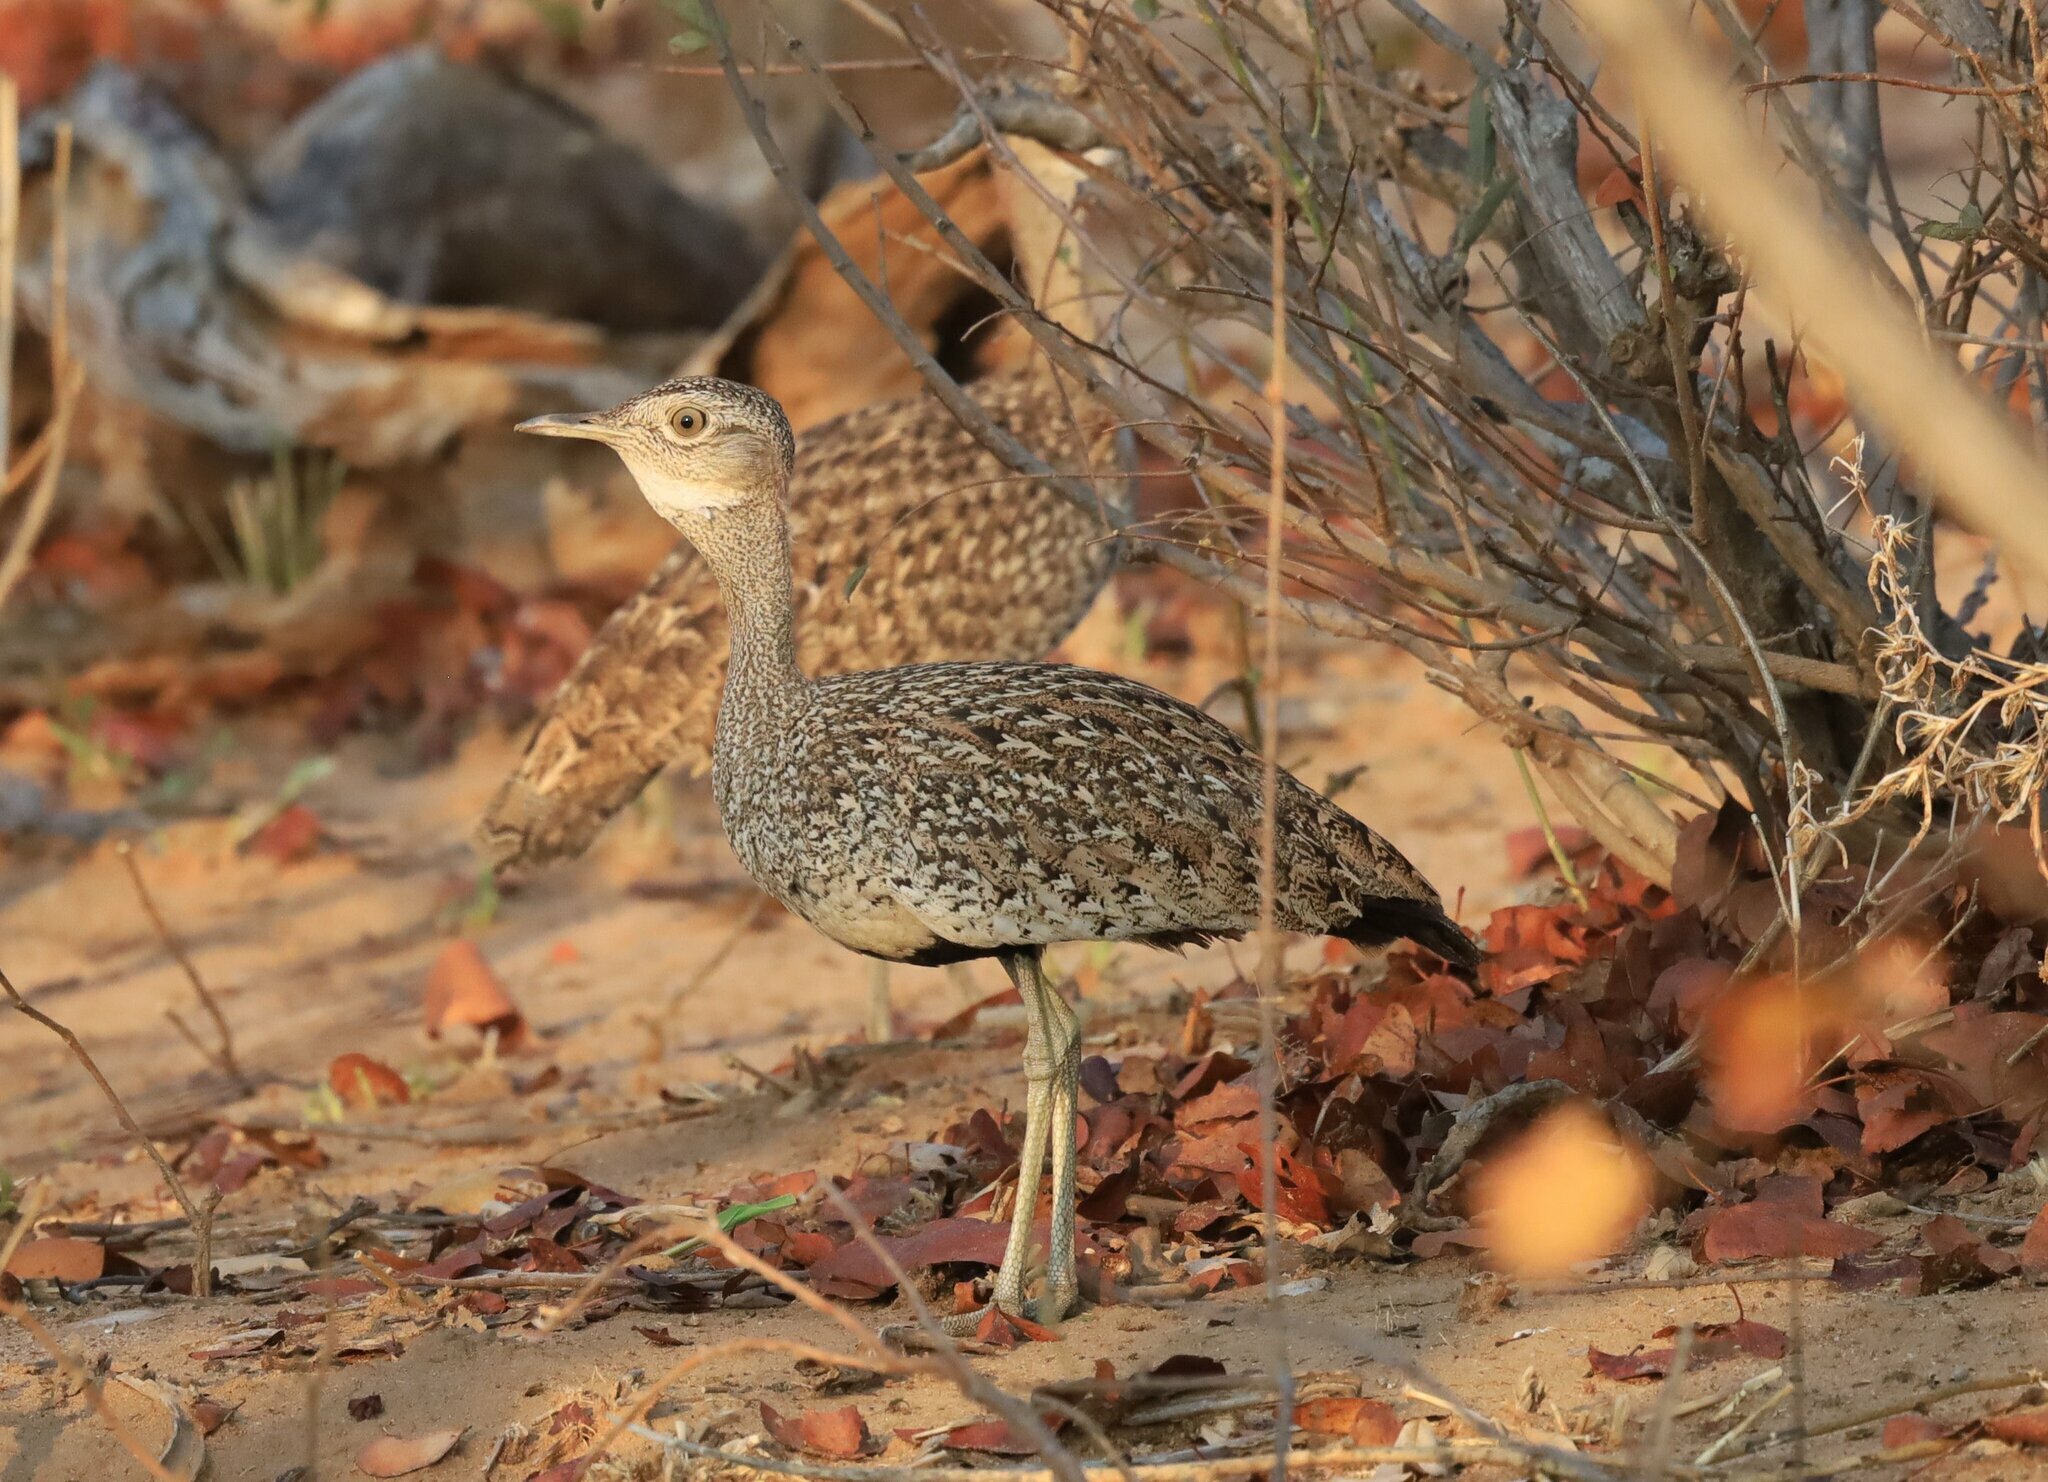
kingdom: Animalia
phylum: Chordata
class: Aves
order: Otidiformes
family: Otididae
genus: Lophotis
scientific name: Lophotis ruficrista
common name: Red-crested korhaan
